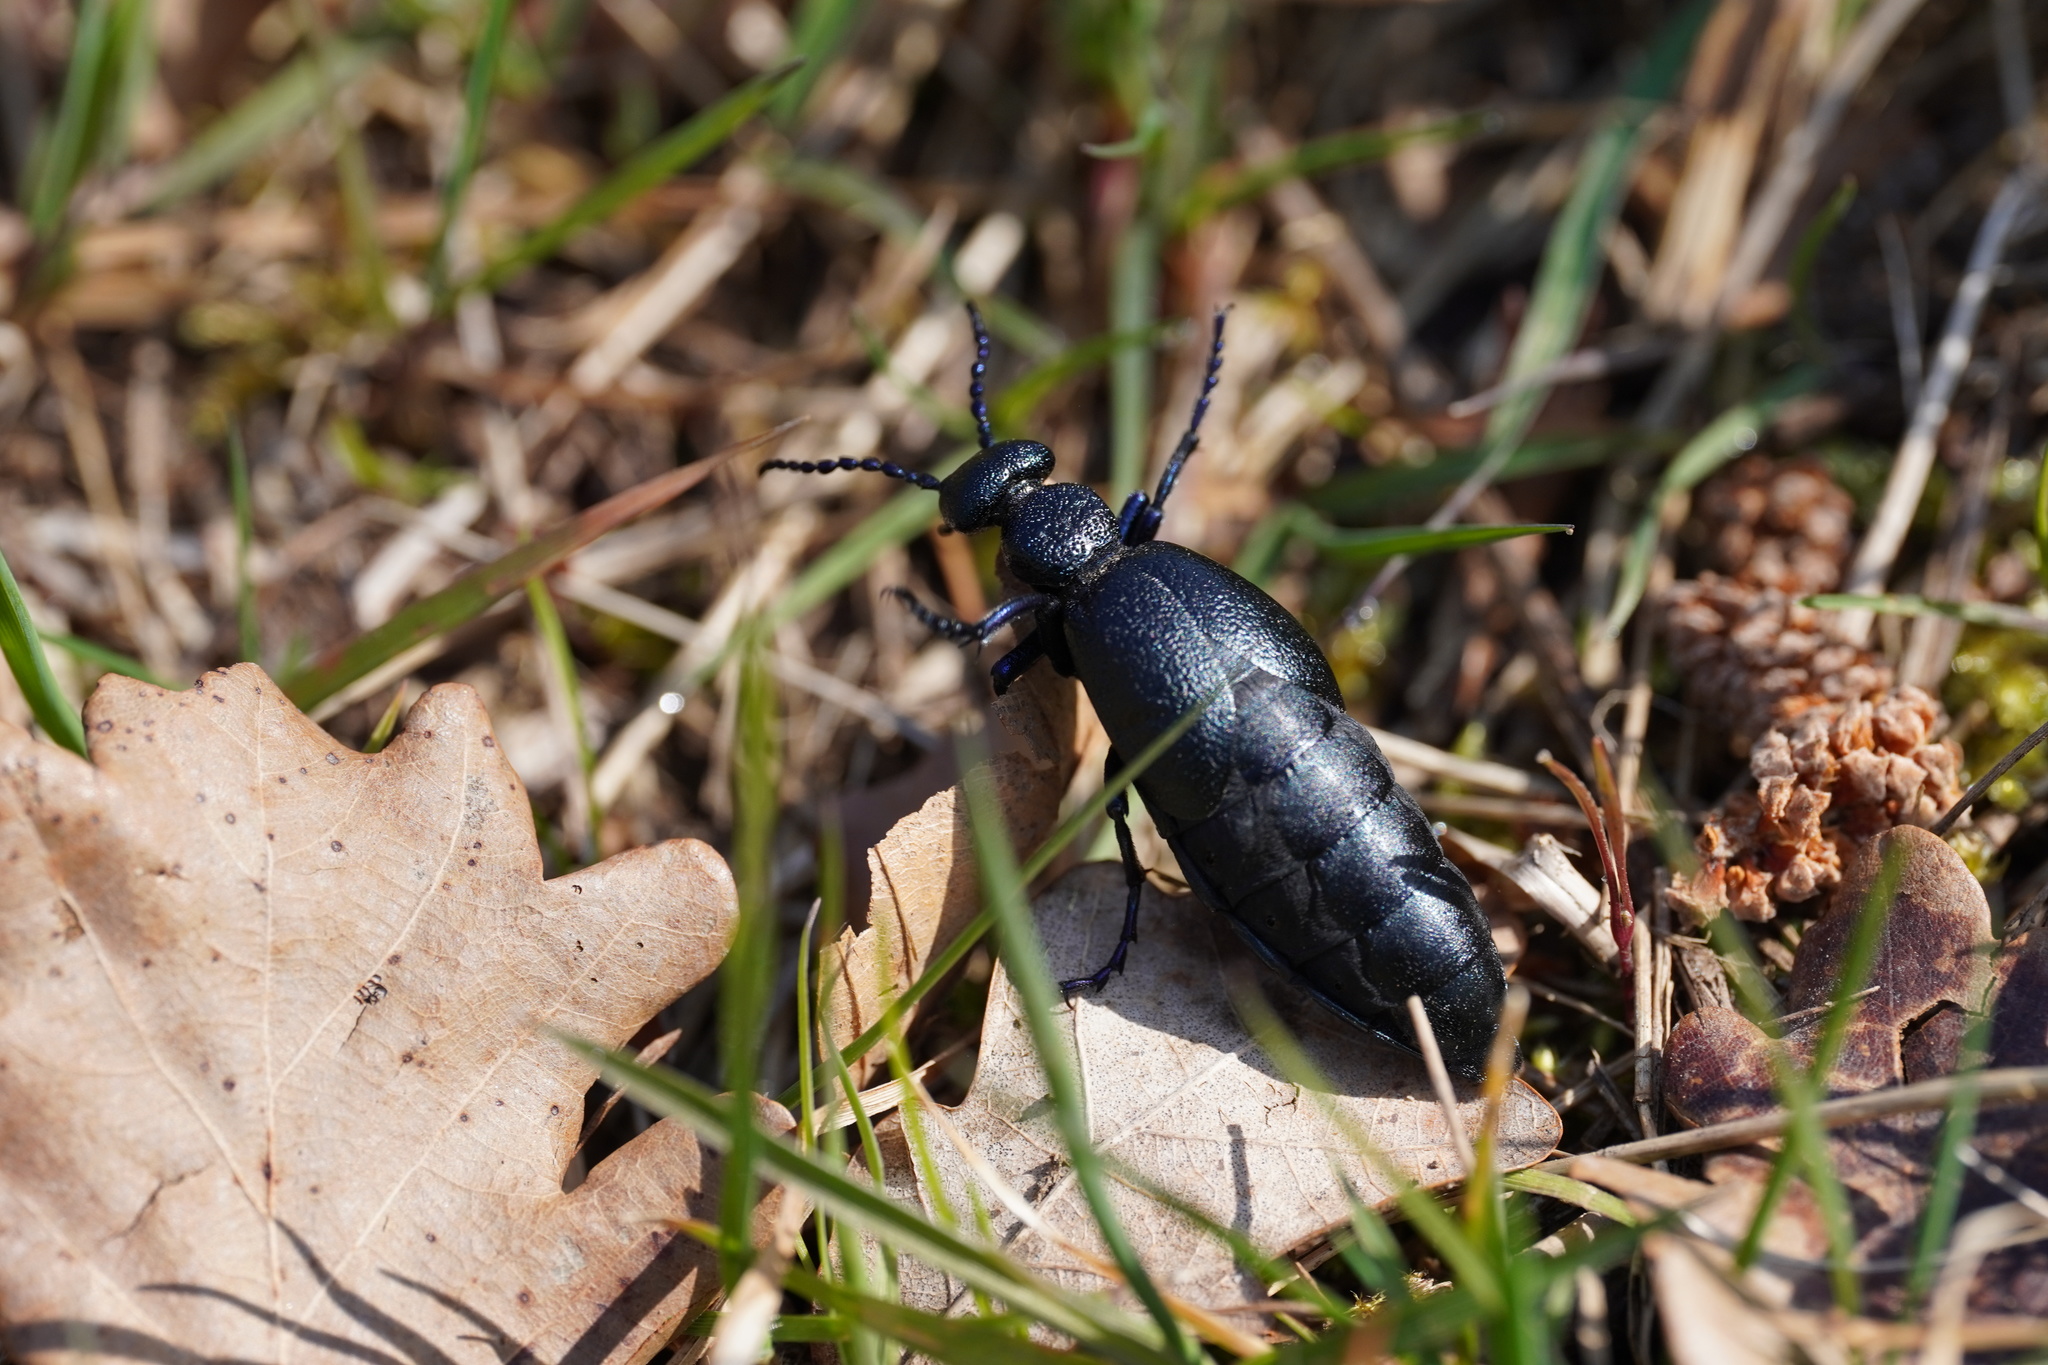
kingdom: Animalia
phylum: Arthropoda
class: Insecta
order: Coleoptera
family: Meloidae
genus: Meloe
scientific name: Meloe proscarabaeus
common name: Black oil-beetle
